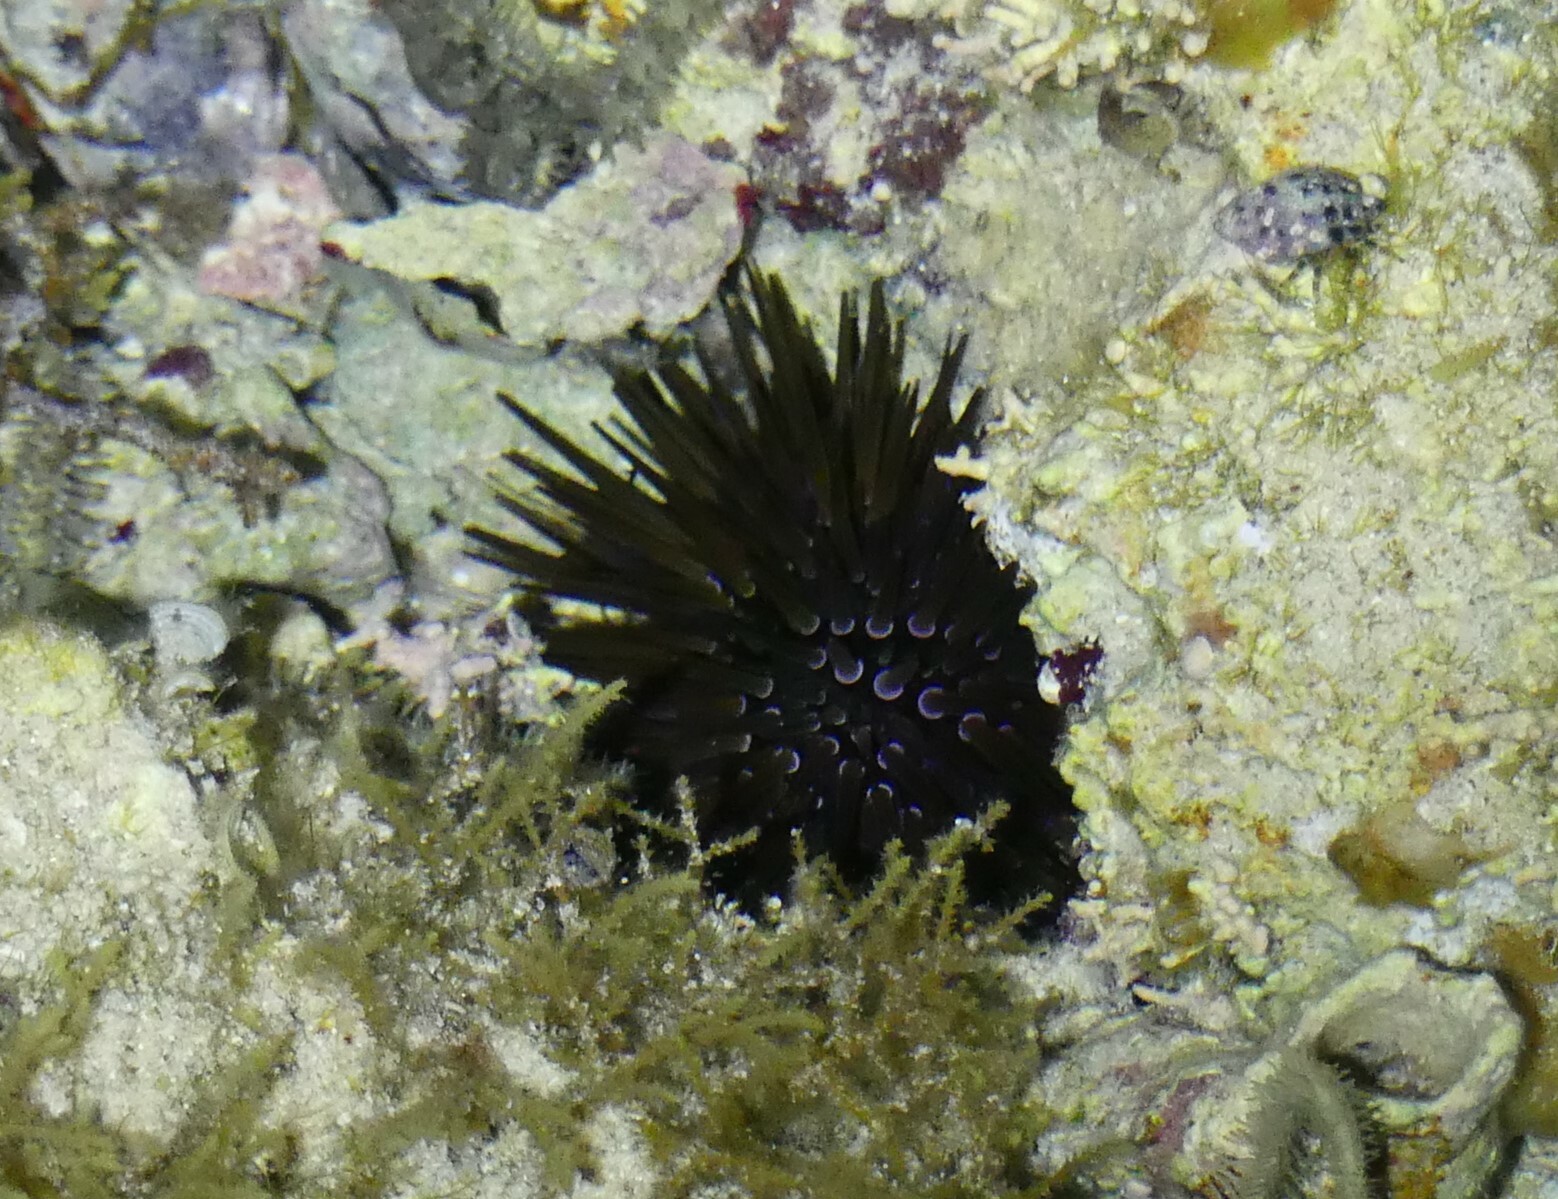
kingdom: Animalia
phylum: Echinodermata
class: Echinoidea
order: Camarodonta
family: Echinometridae
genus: Echinometra
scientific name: Echinometra mathaei
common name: Rock-boring urchin
